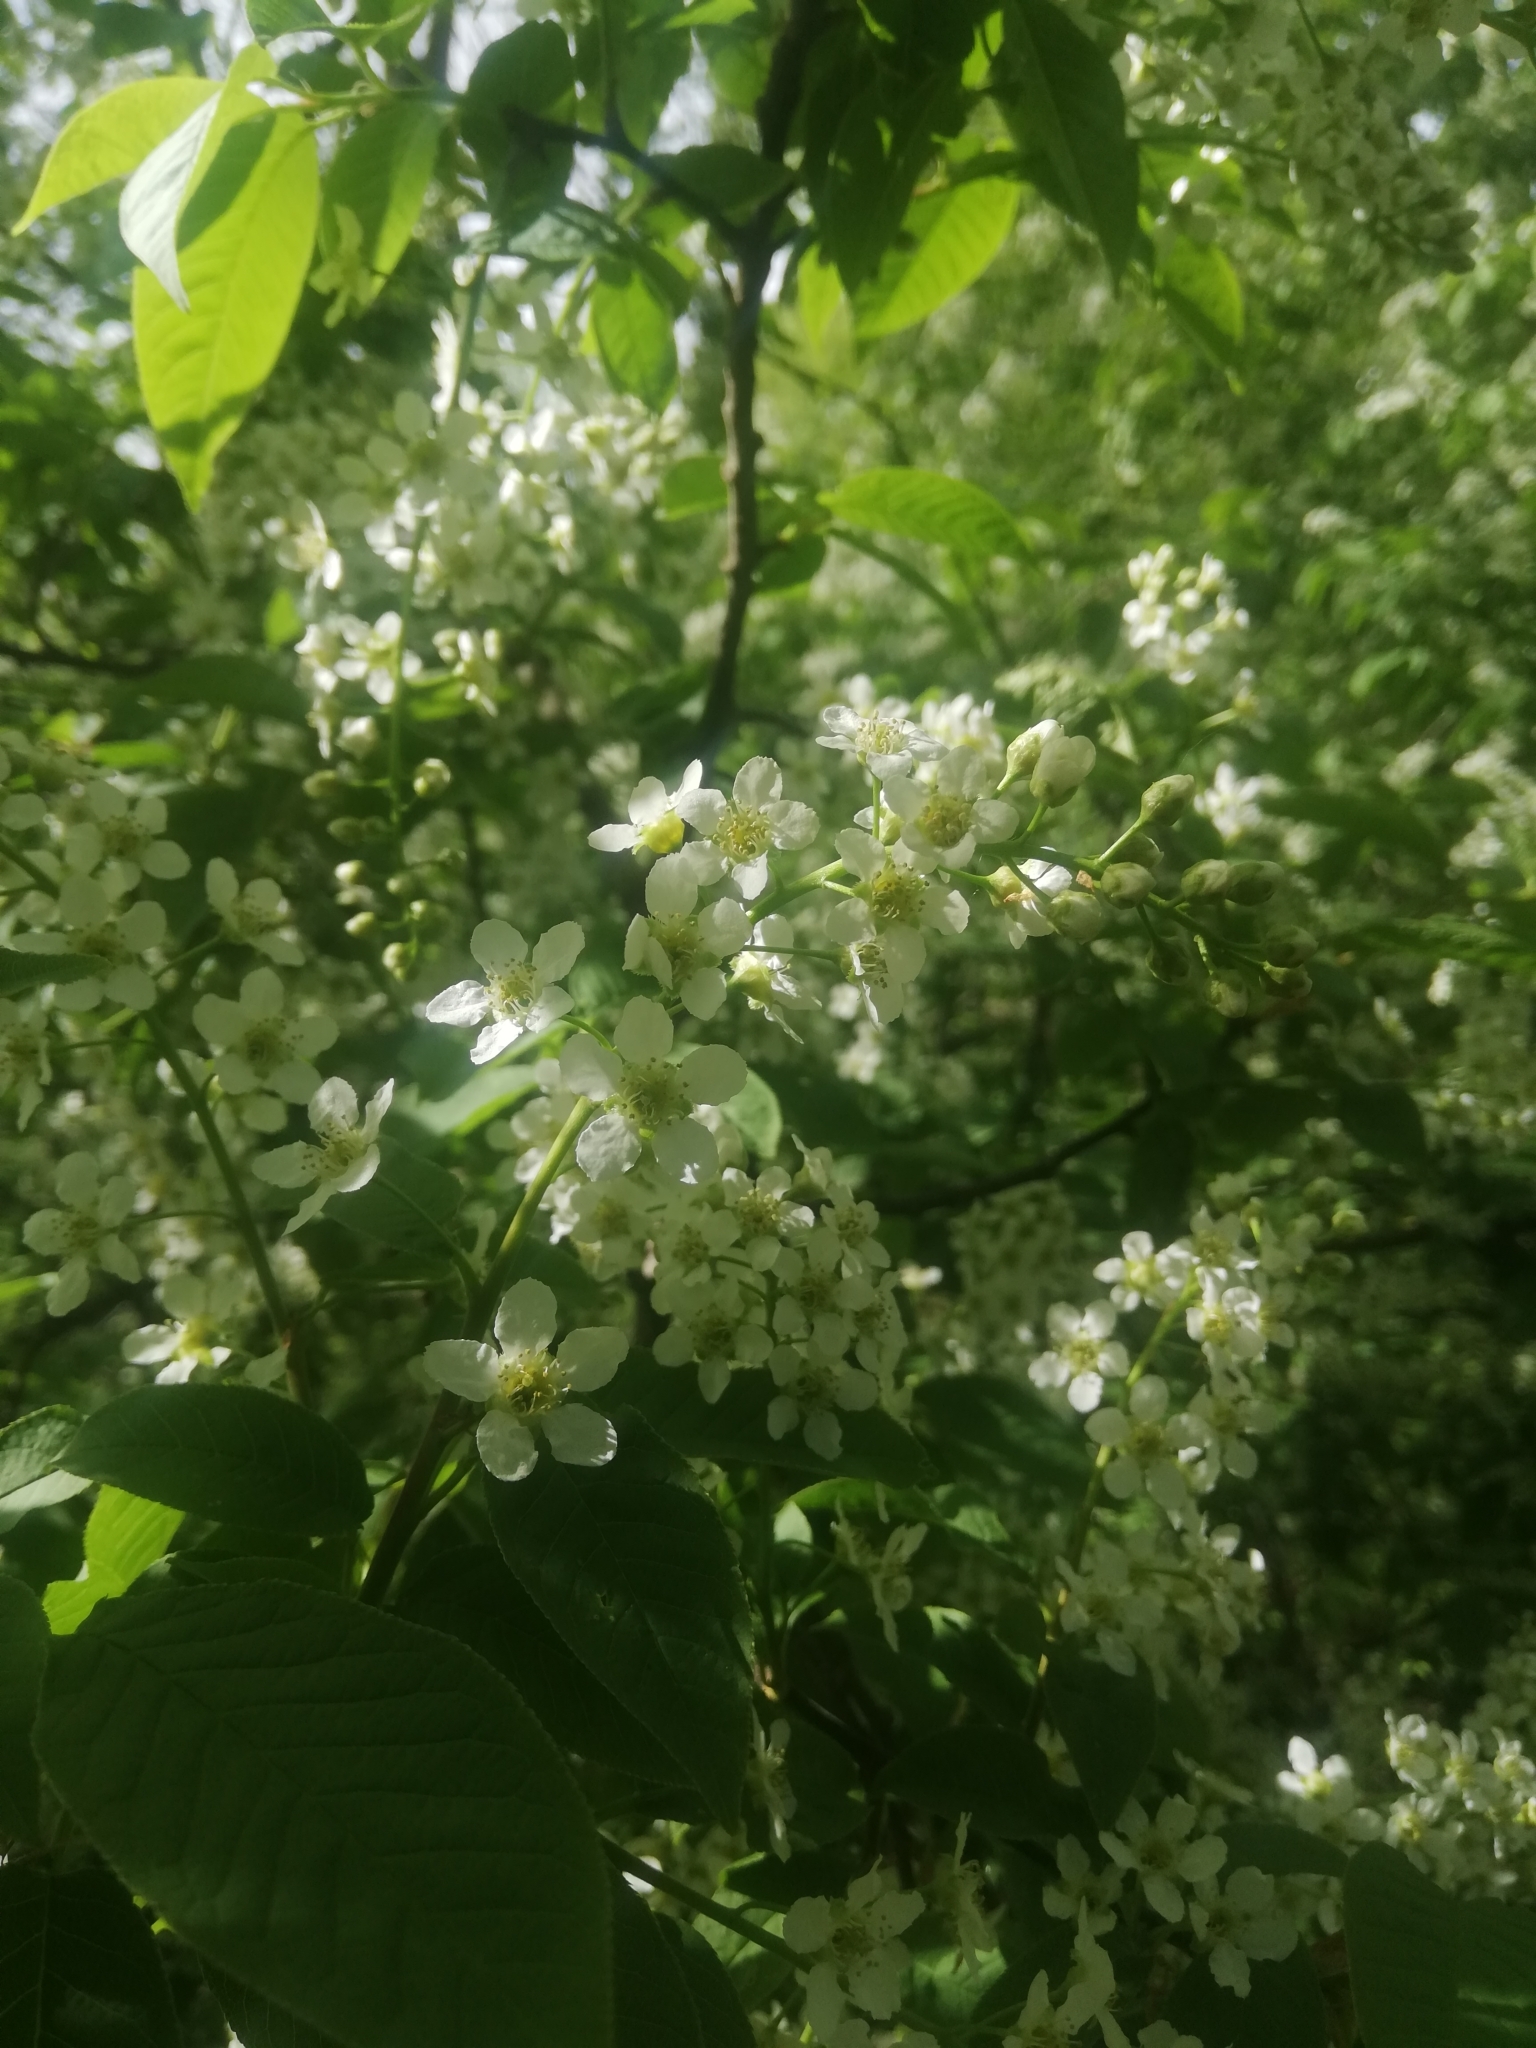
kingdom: Plantae
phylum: Tracheophyta
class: Magnoliopsida
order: Rosales
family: Rosaceae
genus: Prunus
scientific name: Prunus padus
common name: Bird cherry
